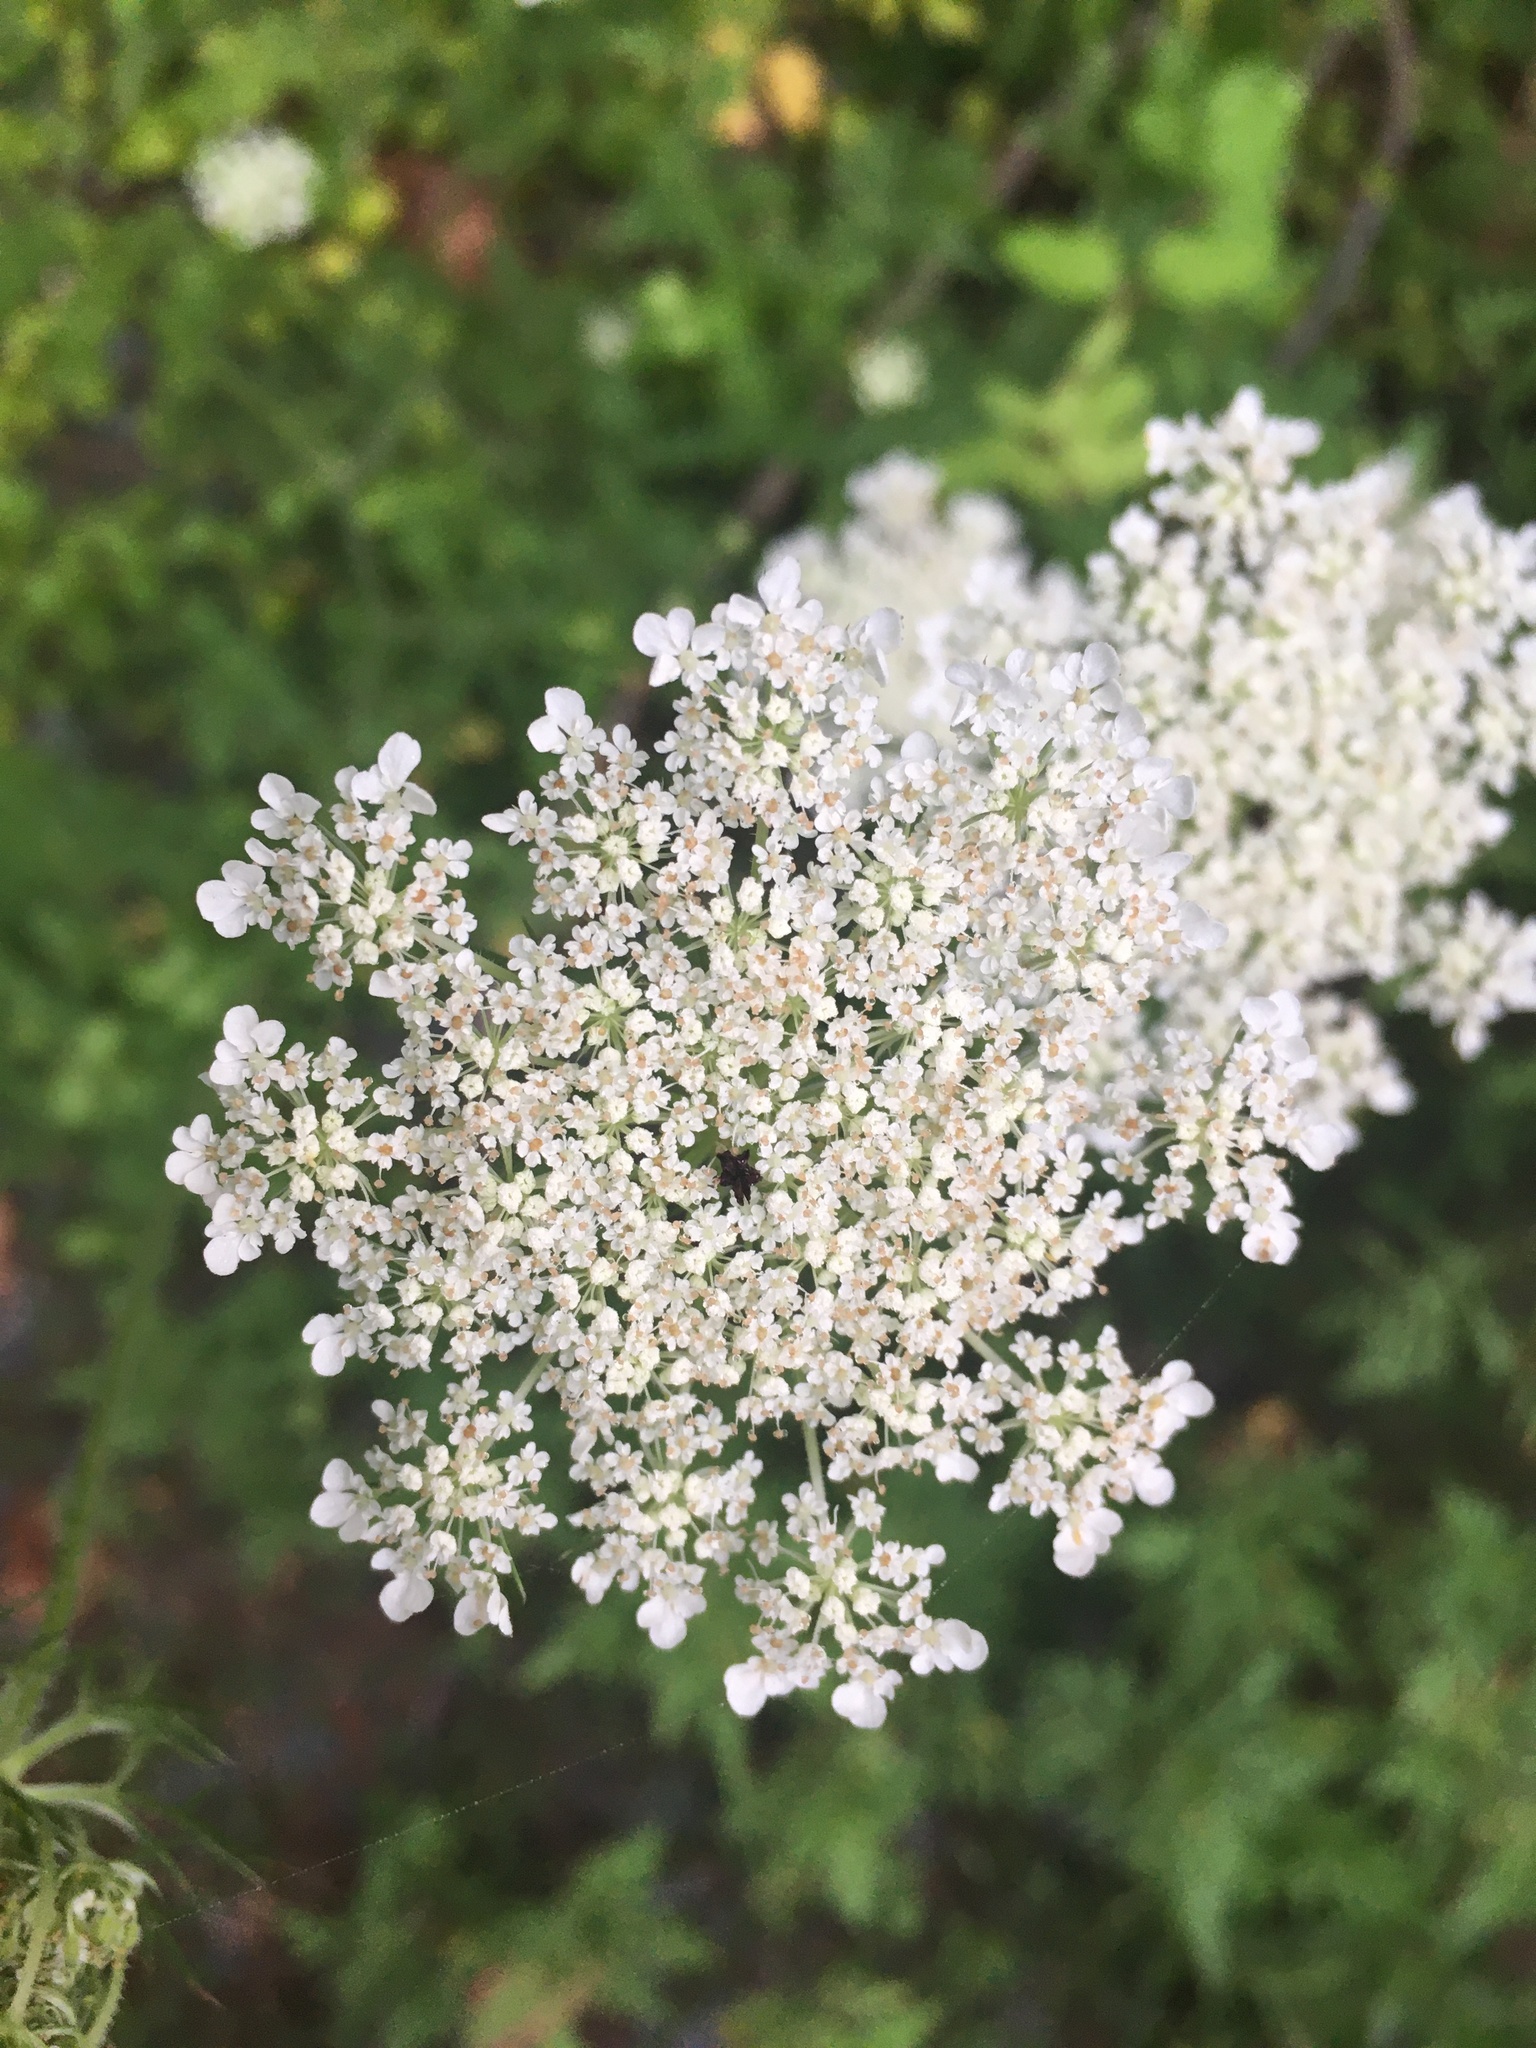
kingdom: Plantae
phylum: Tracheophyta
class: Magnoliopsida
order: Apiales
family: Apiaceae
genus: Daucus
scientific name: Daucus carota
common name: Wild carrot
